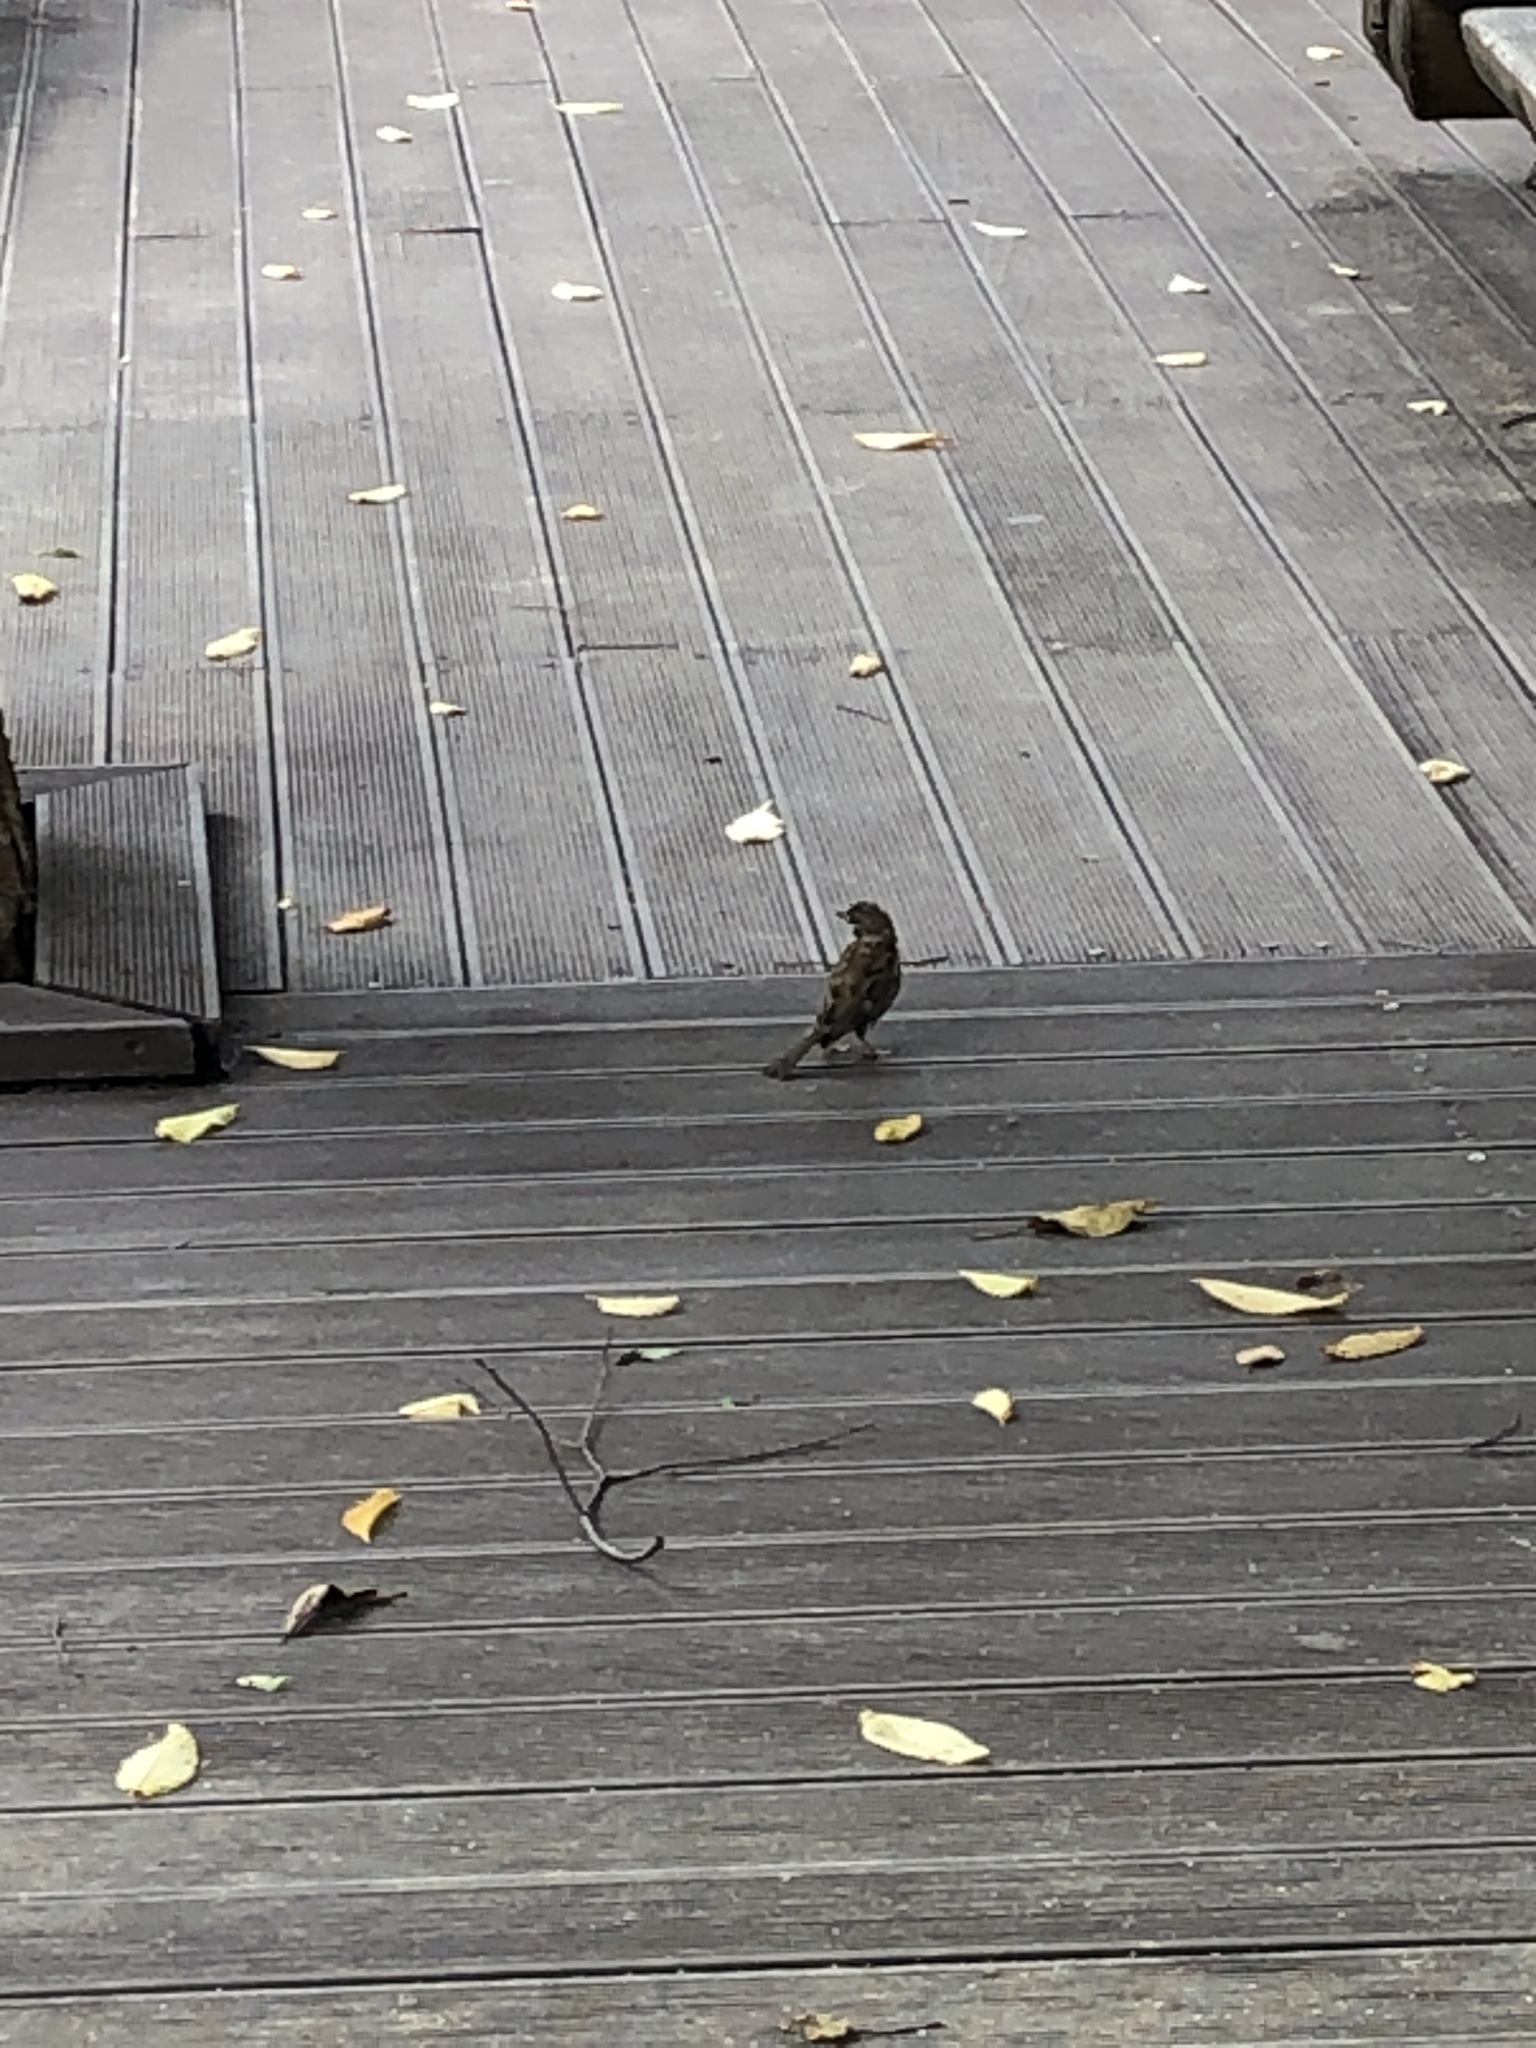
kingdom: Animalia
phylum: Chordata
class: Aves
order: Passeriformes
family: Passeridae
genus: Passer
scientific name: Passer montanus
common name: Eurasian tree sparrow
